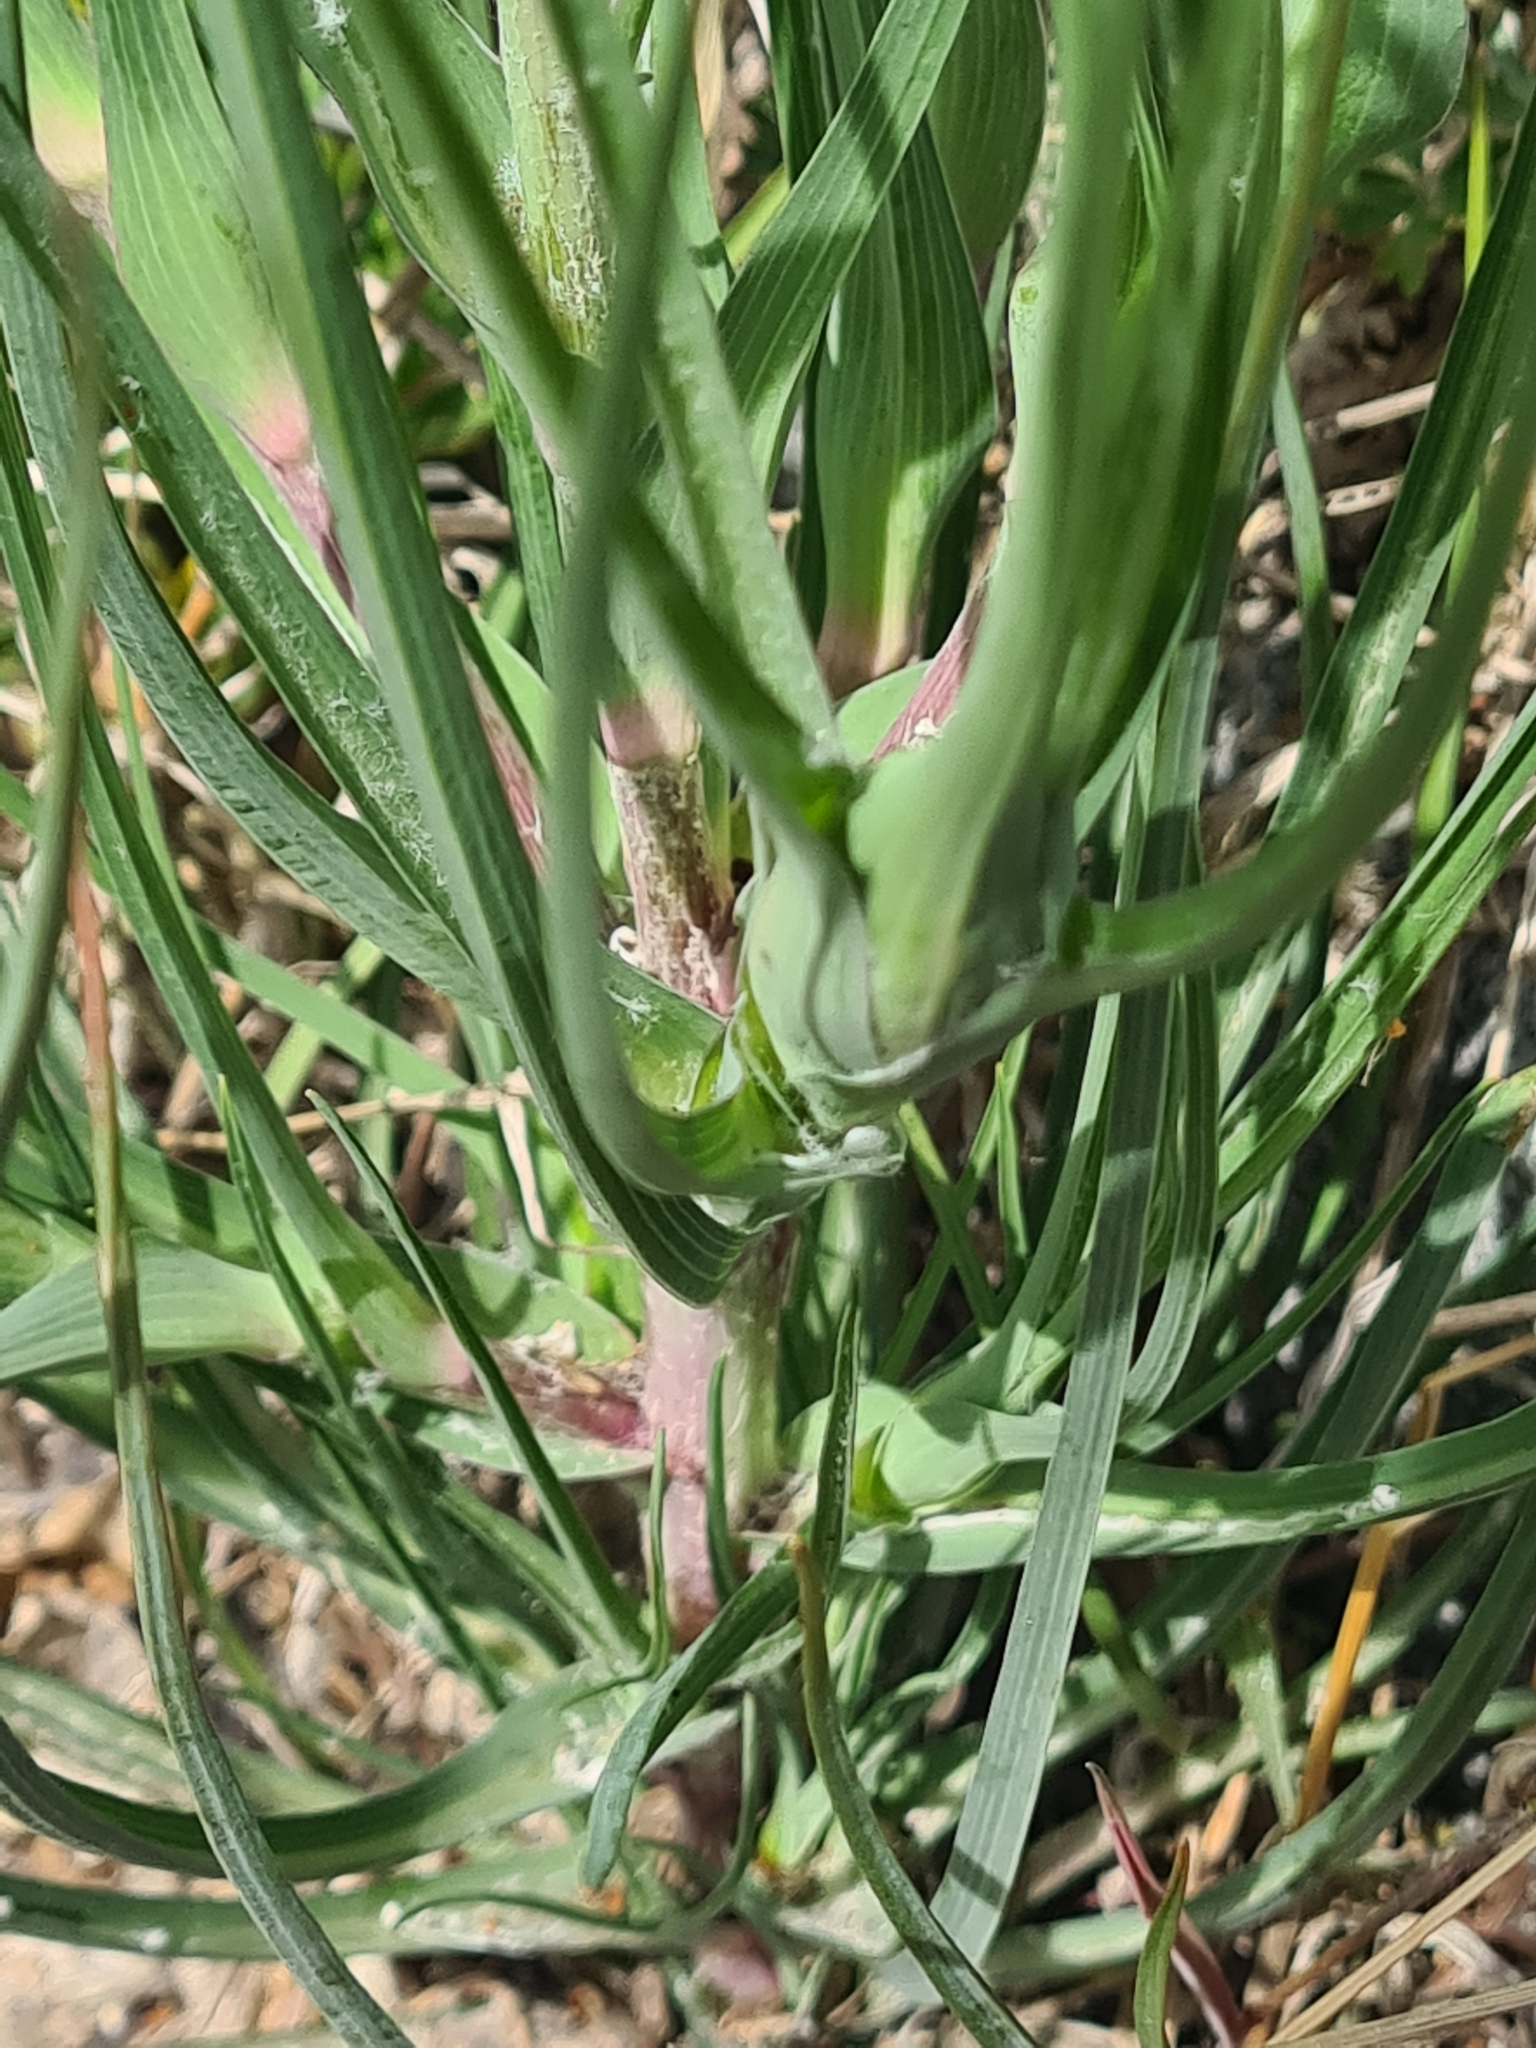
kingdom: Plantae
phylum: Tracheophyta
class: Magnoliopsida
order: Asterales
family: Asteraceae
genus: Tragopogon
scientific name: Tragopogon dubius
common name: Yellow salsify
